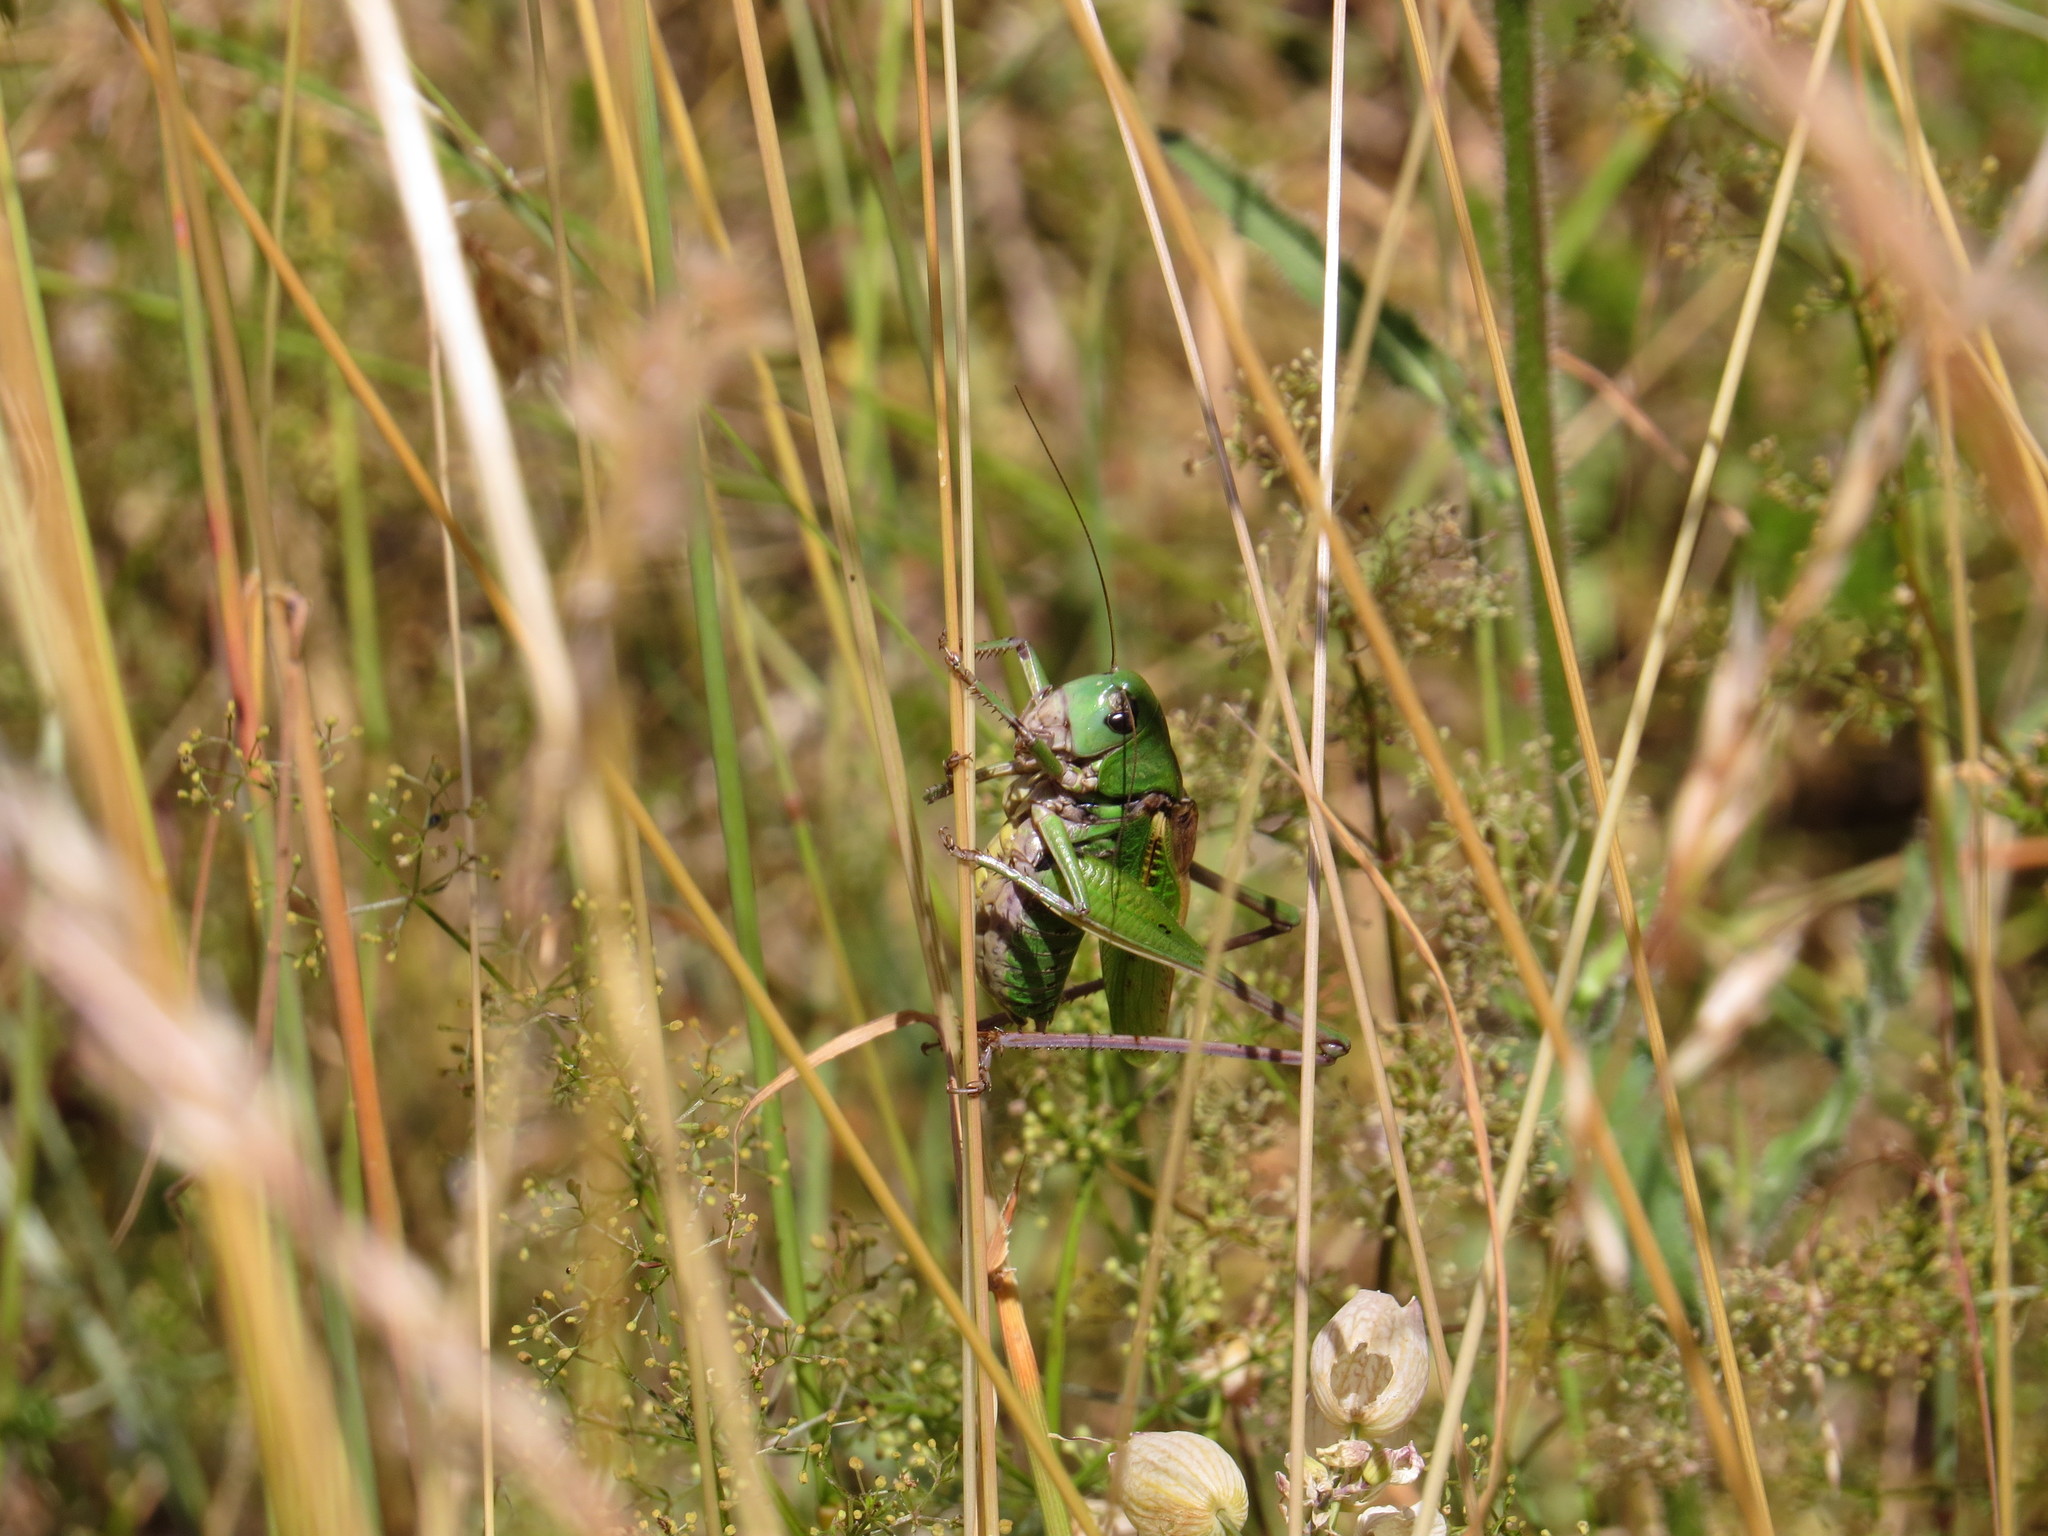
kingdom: Animalia
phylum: Arthropoda
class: Insecta
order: Orthoptera
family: Tettigoniidae
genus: Decticus
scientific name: Decticus verrucivorus
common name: Wart-biter
